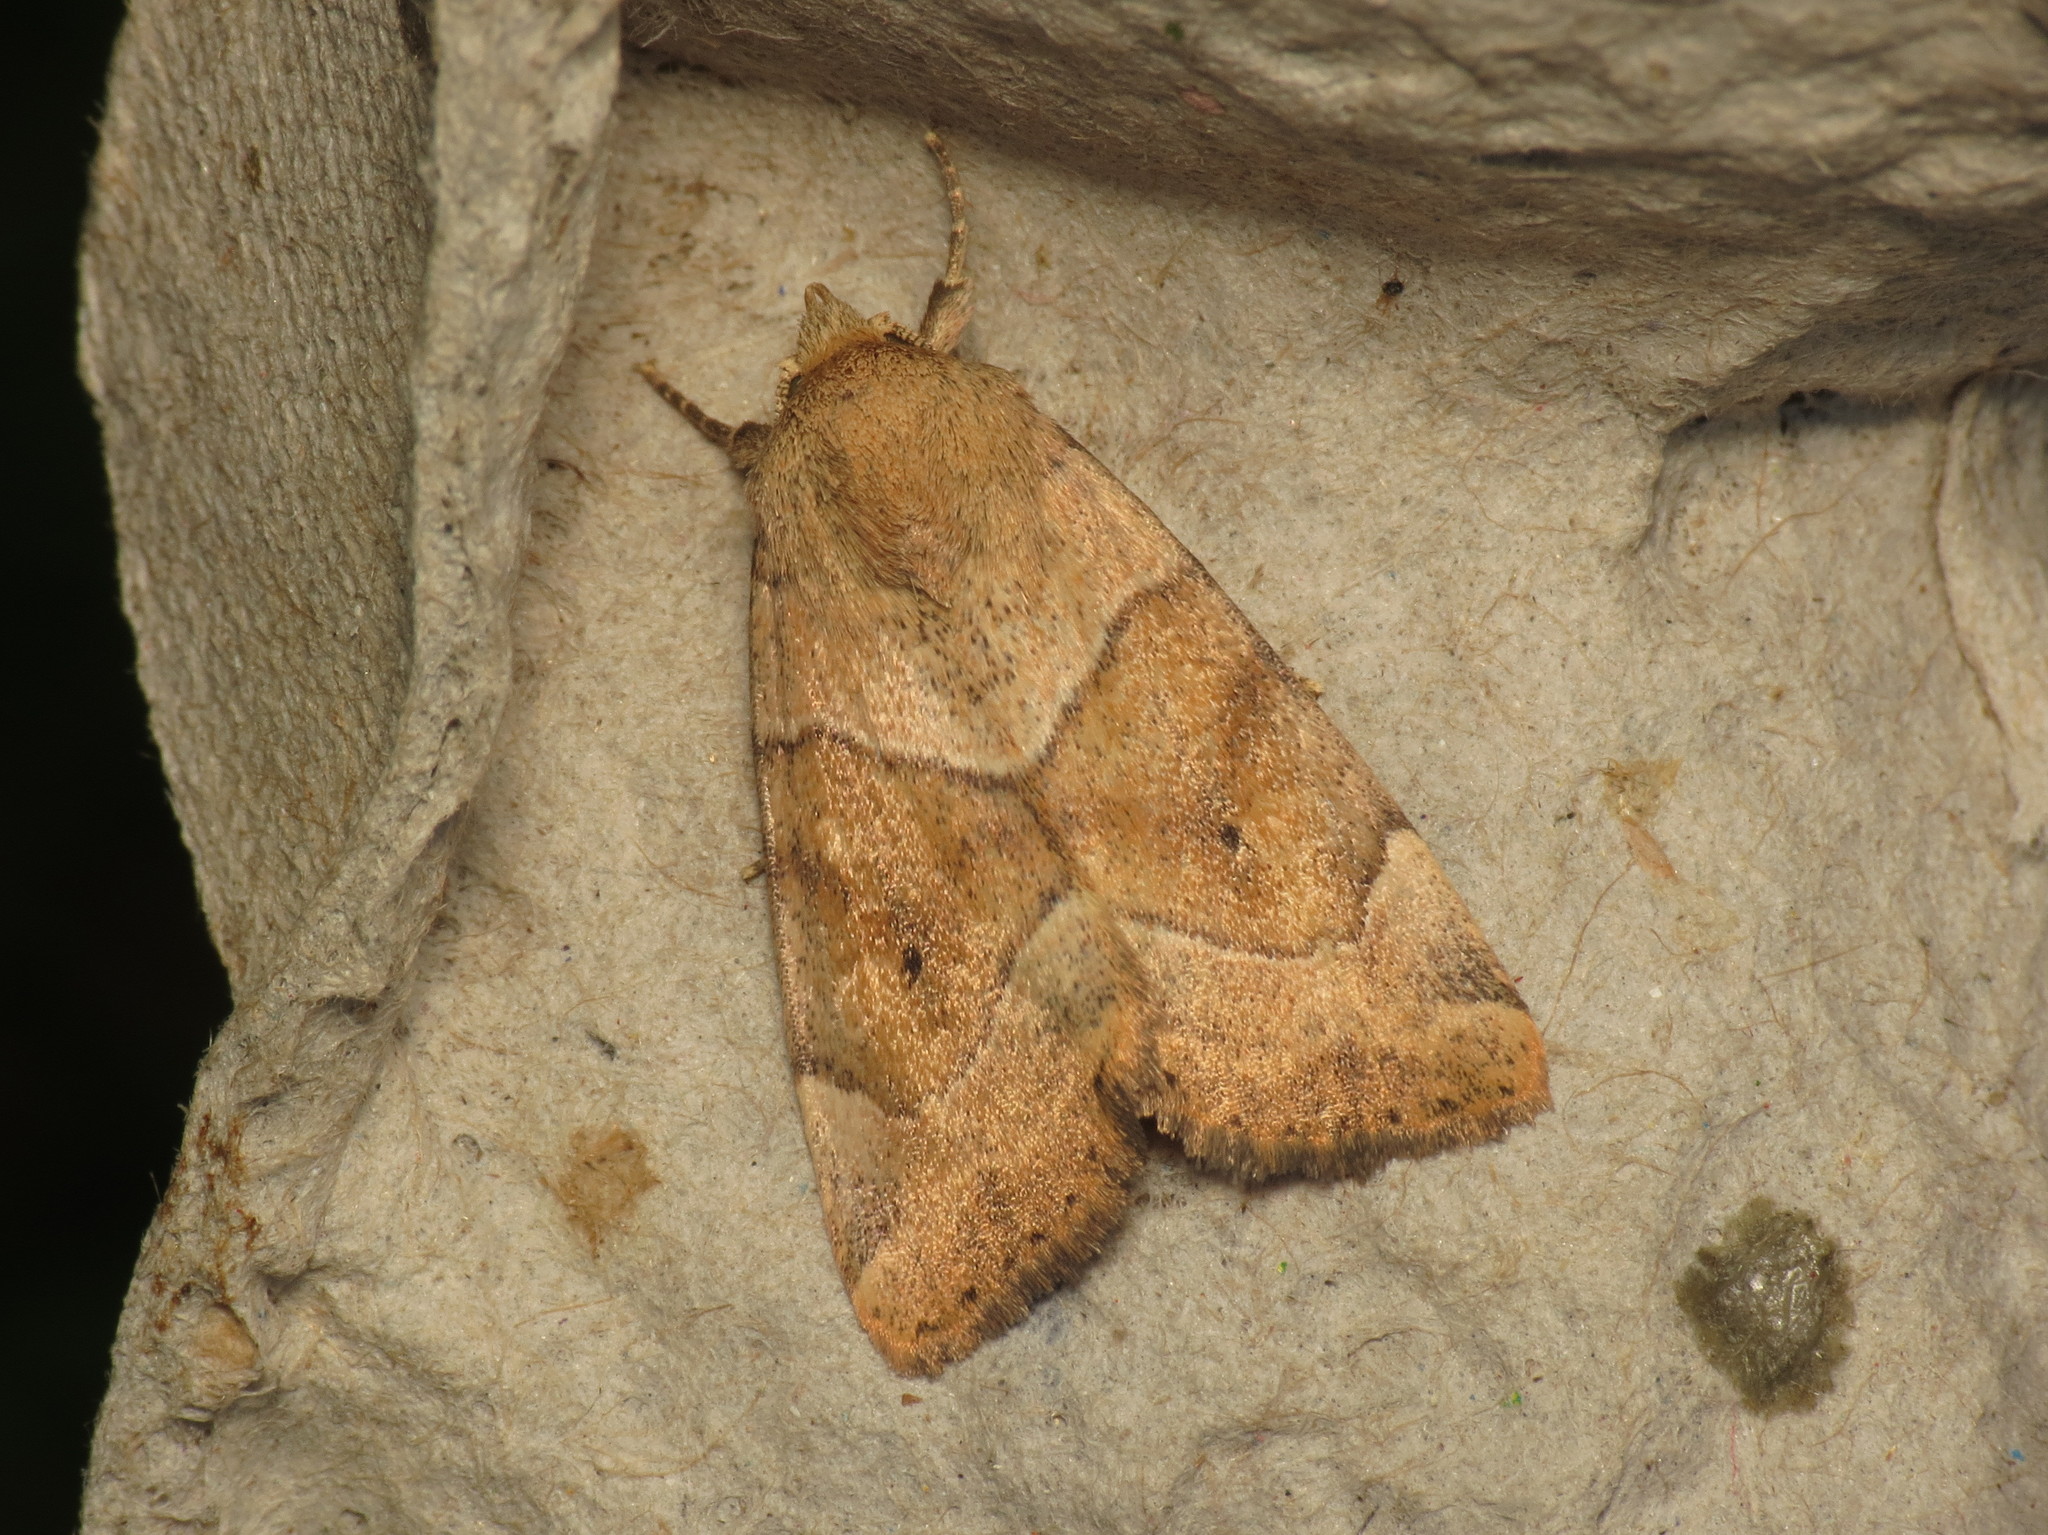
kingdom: Animalia
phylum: Arthropoda
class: Insecta
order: Lepidoptera
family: Noctuidae
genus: Cosmia
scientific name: Cosmia trapezina
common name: Dun-bar
